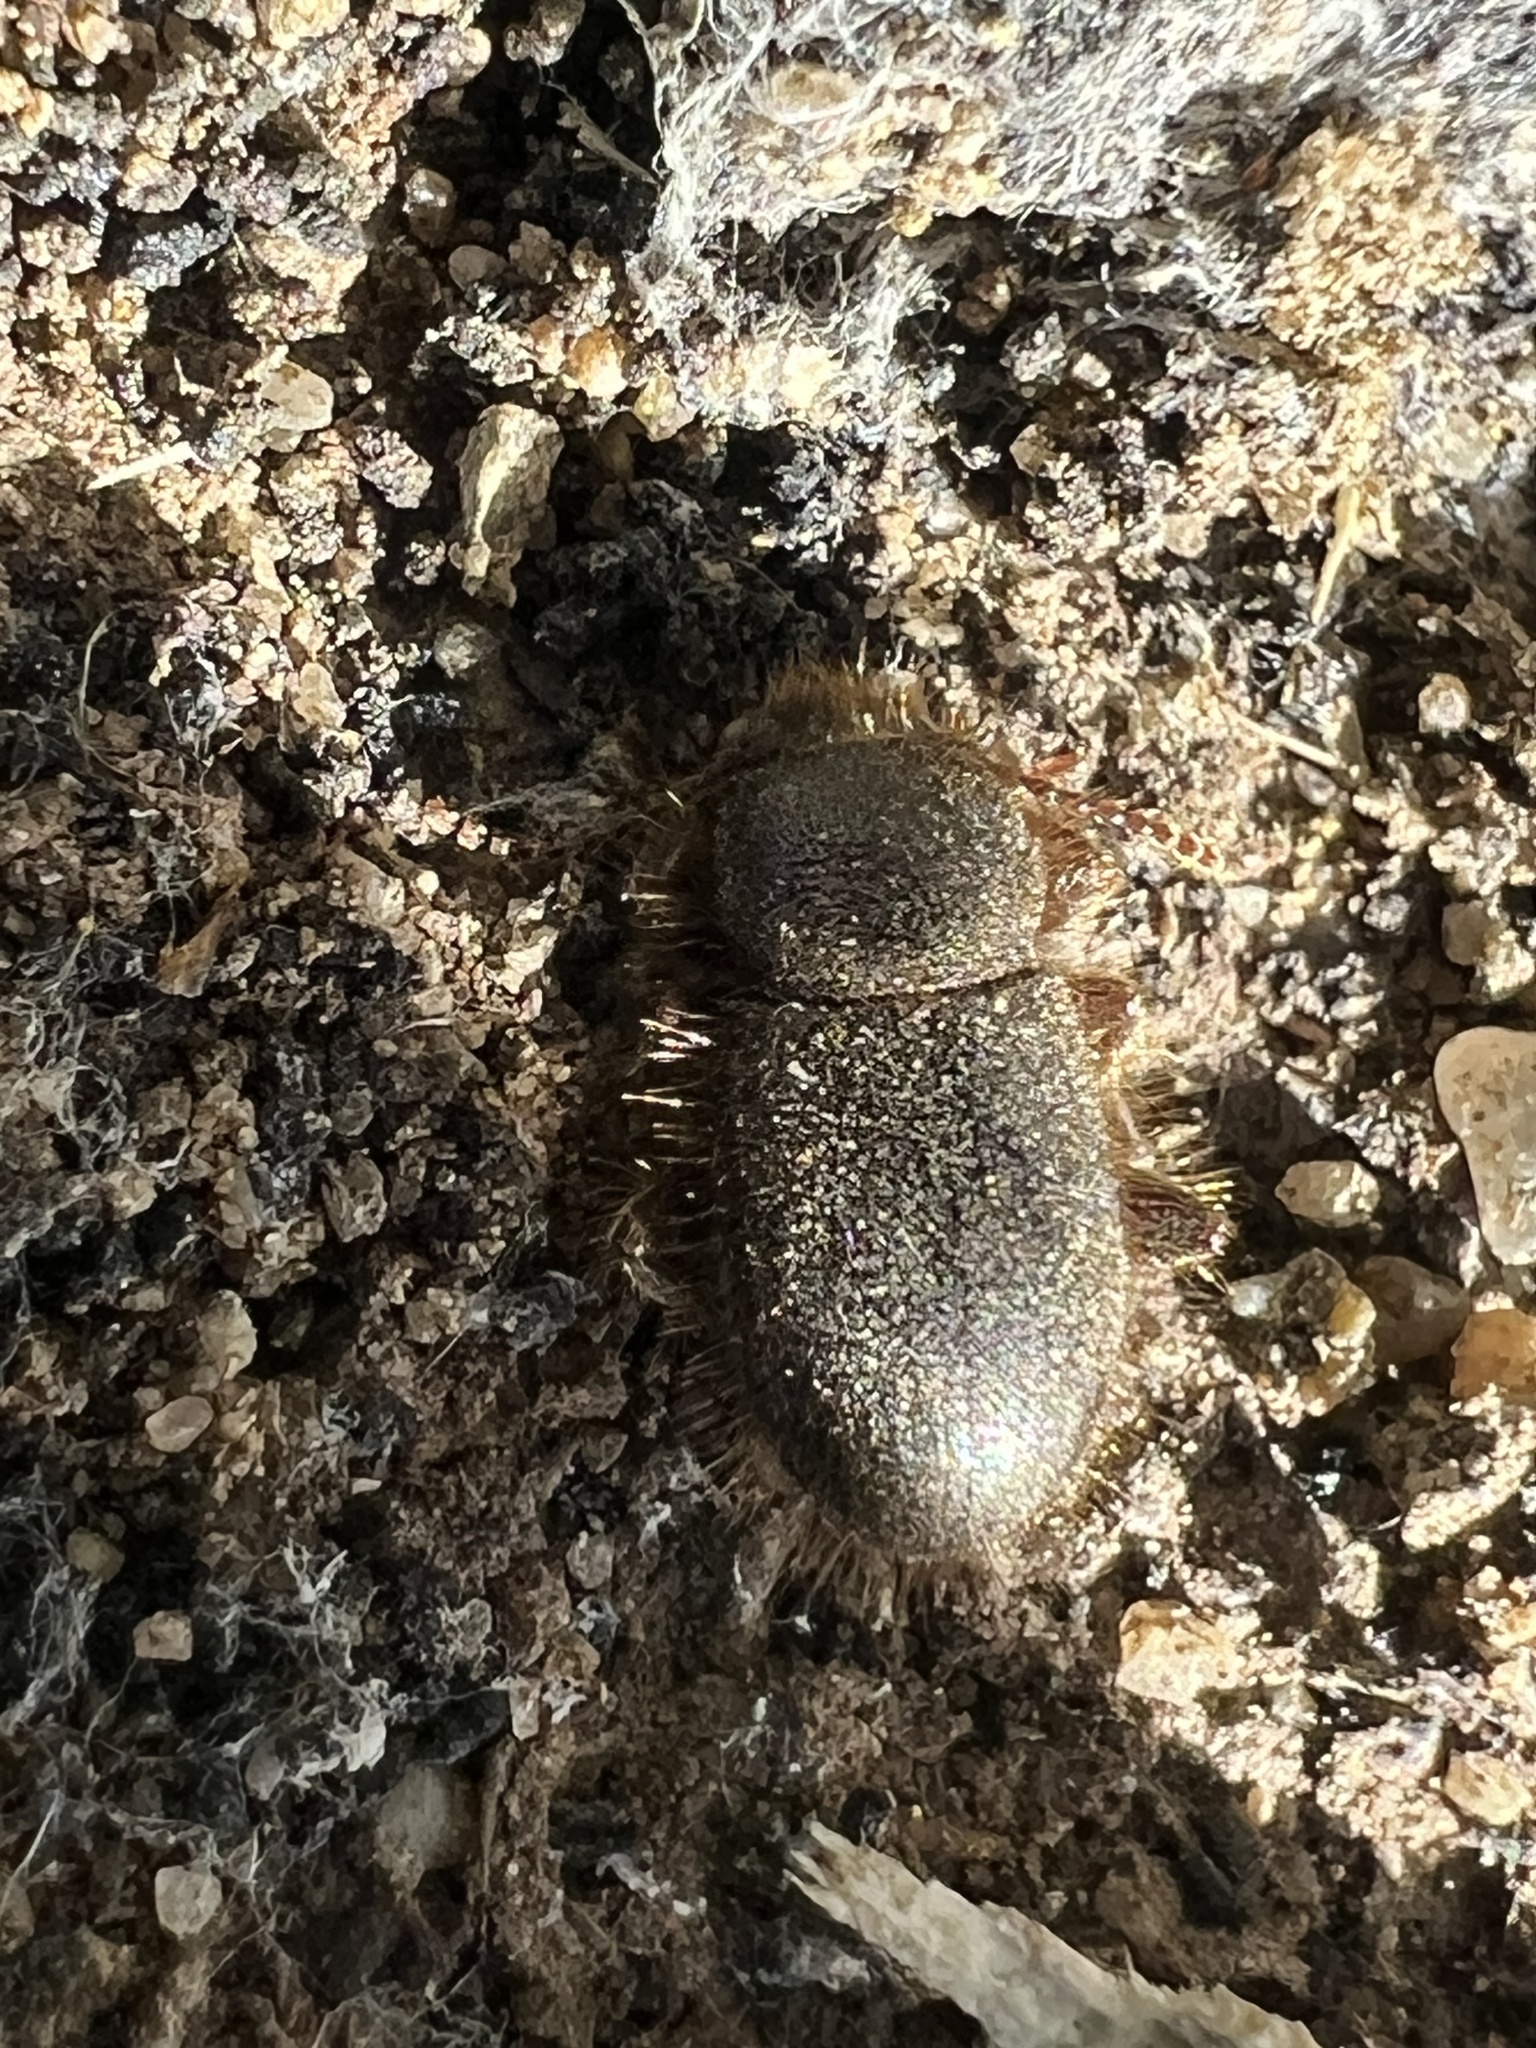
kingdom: Animalia
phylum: Arthropoda
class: Insecta
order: Coleoptera
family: Tenebrionidae
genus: Eleodes
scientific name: Eleodes littoralis
